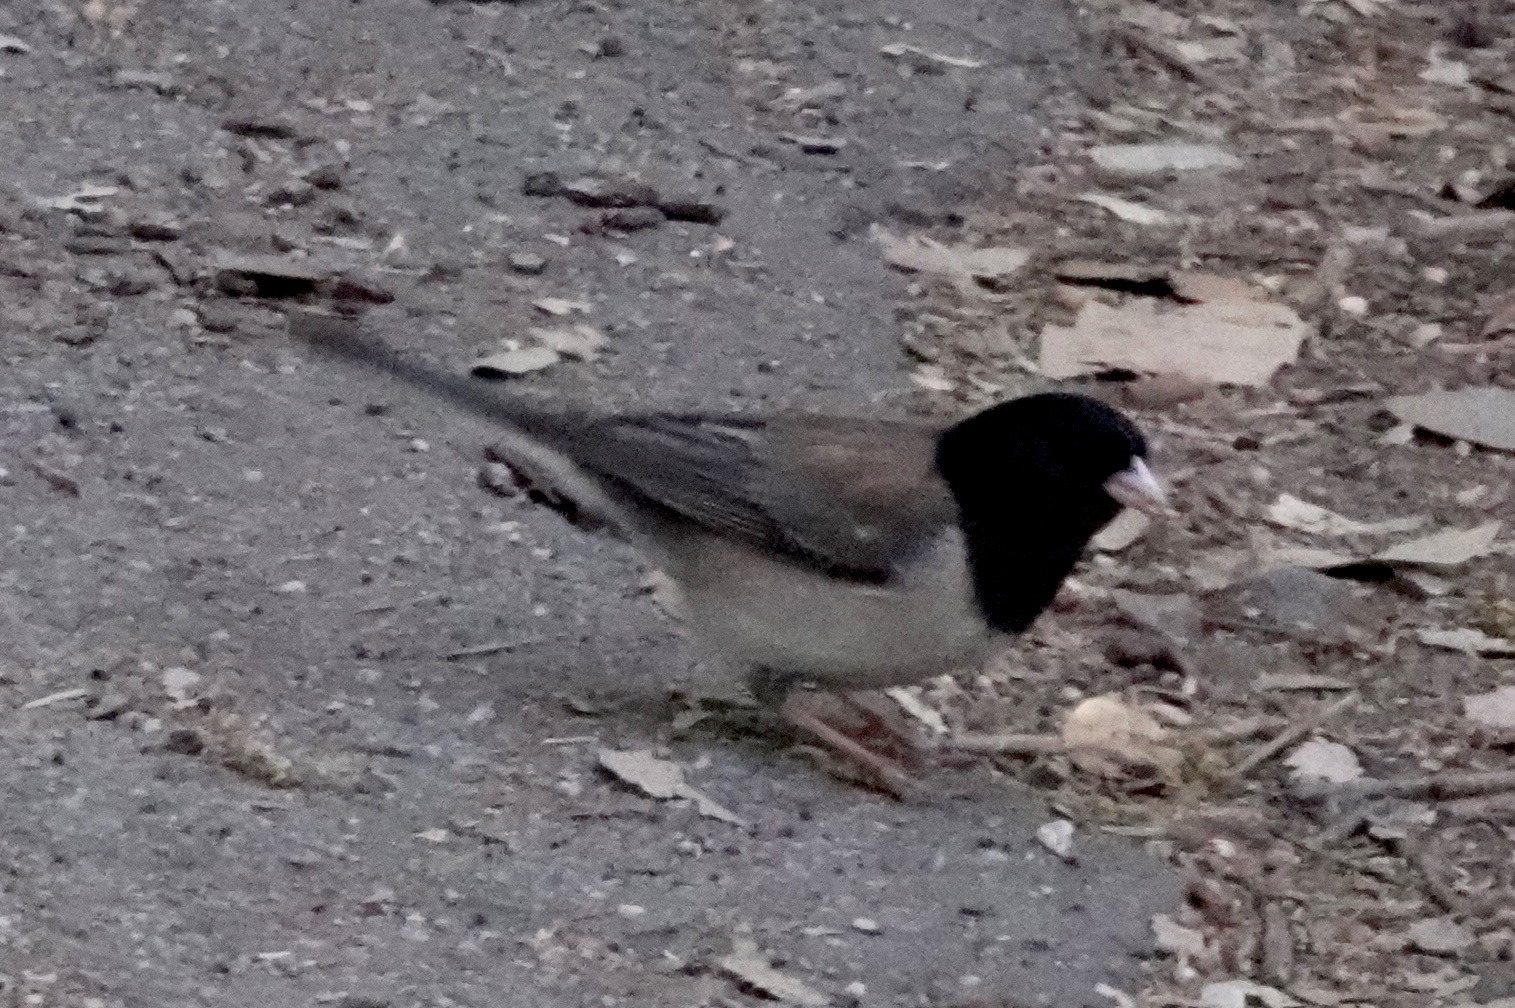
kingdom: Animalia
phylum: Chordata
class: Aves
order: Passeriformes
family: Passerellidae
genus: Junco
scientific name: Junco hyemalis
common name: Dark-eyed junco
